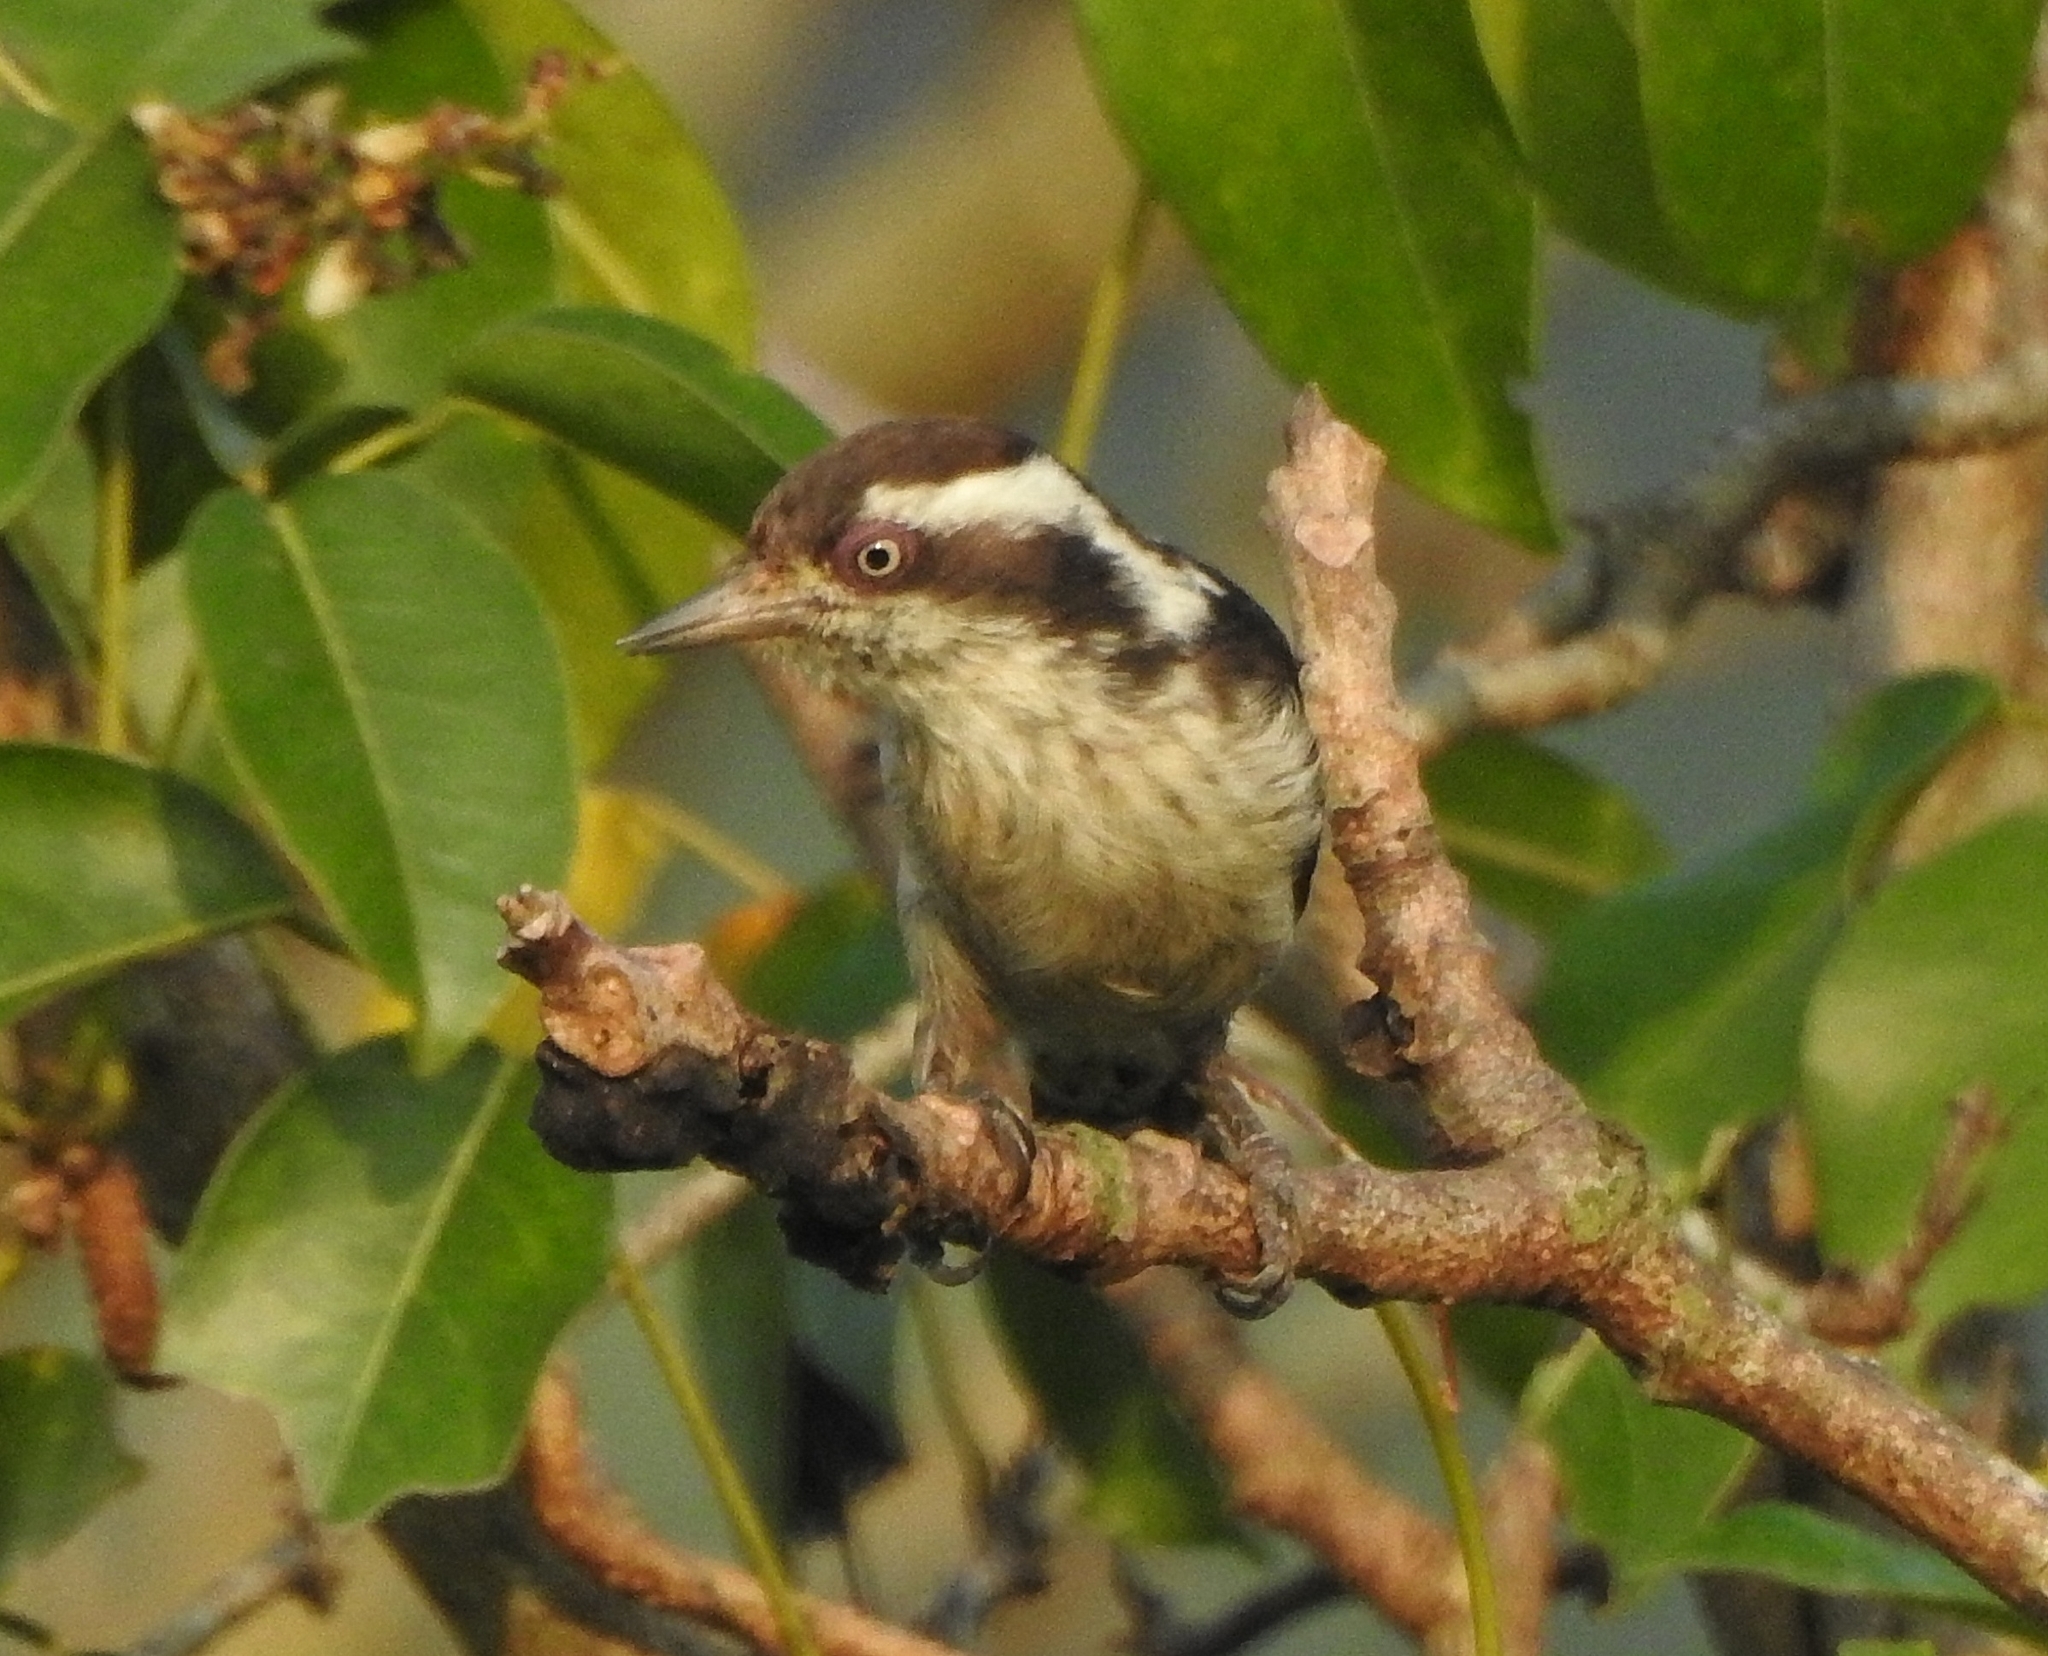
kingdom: Animalia
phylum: Chordata
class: Aves
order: Piciformes
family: Picidae
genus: Yungipicus
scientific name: Yungipicus nanus
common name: Brown-capped pygmy woodpecker
